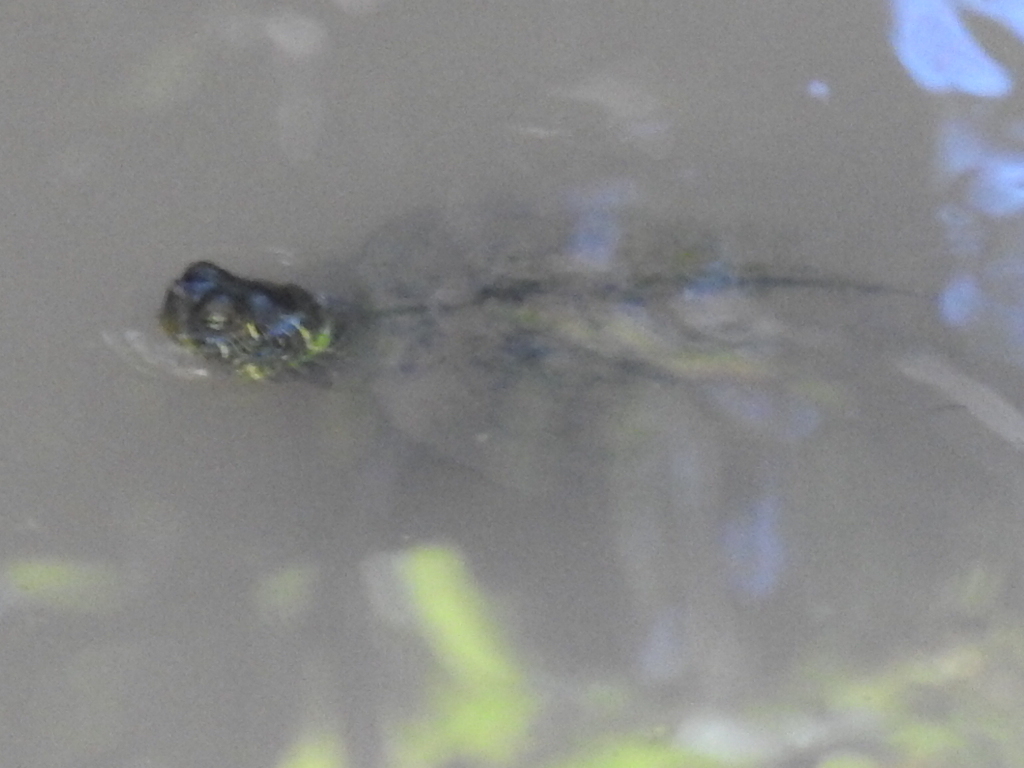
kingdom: Animalia
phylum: Chordata
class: Testudines
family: Emydidae
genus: Pseudemys
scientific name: Pseudemys texana
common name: Texas river cooter
